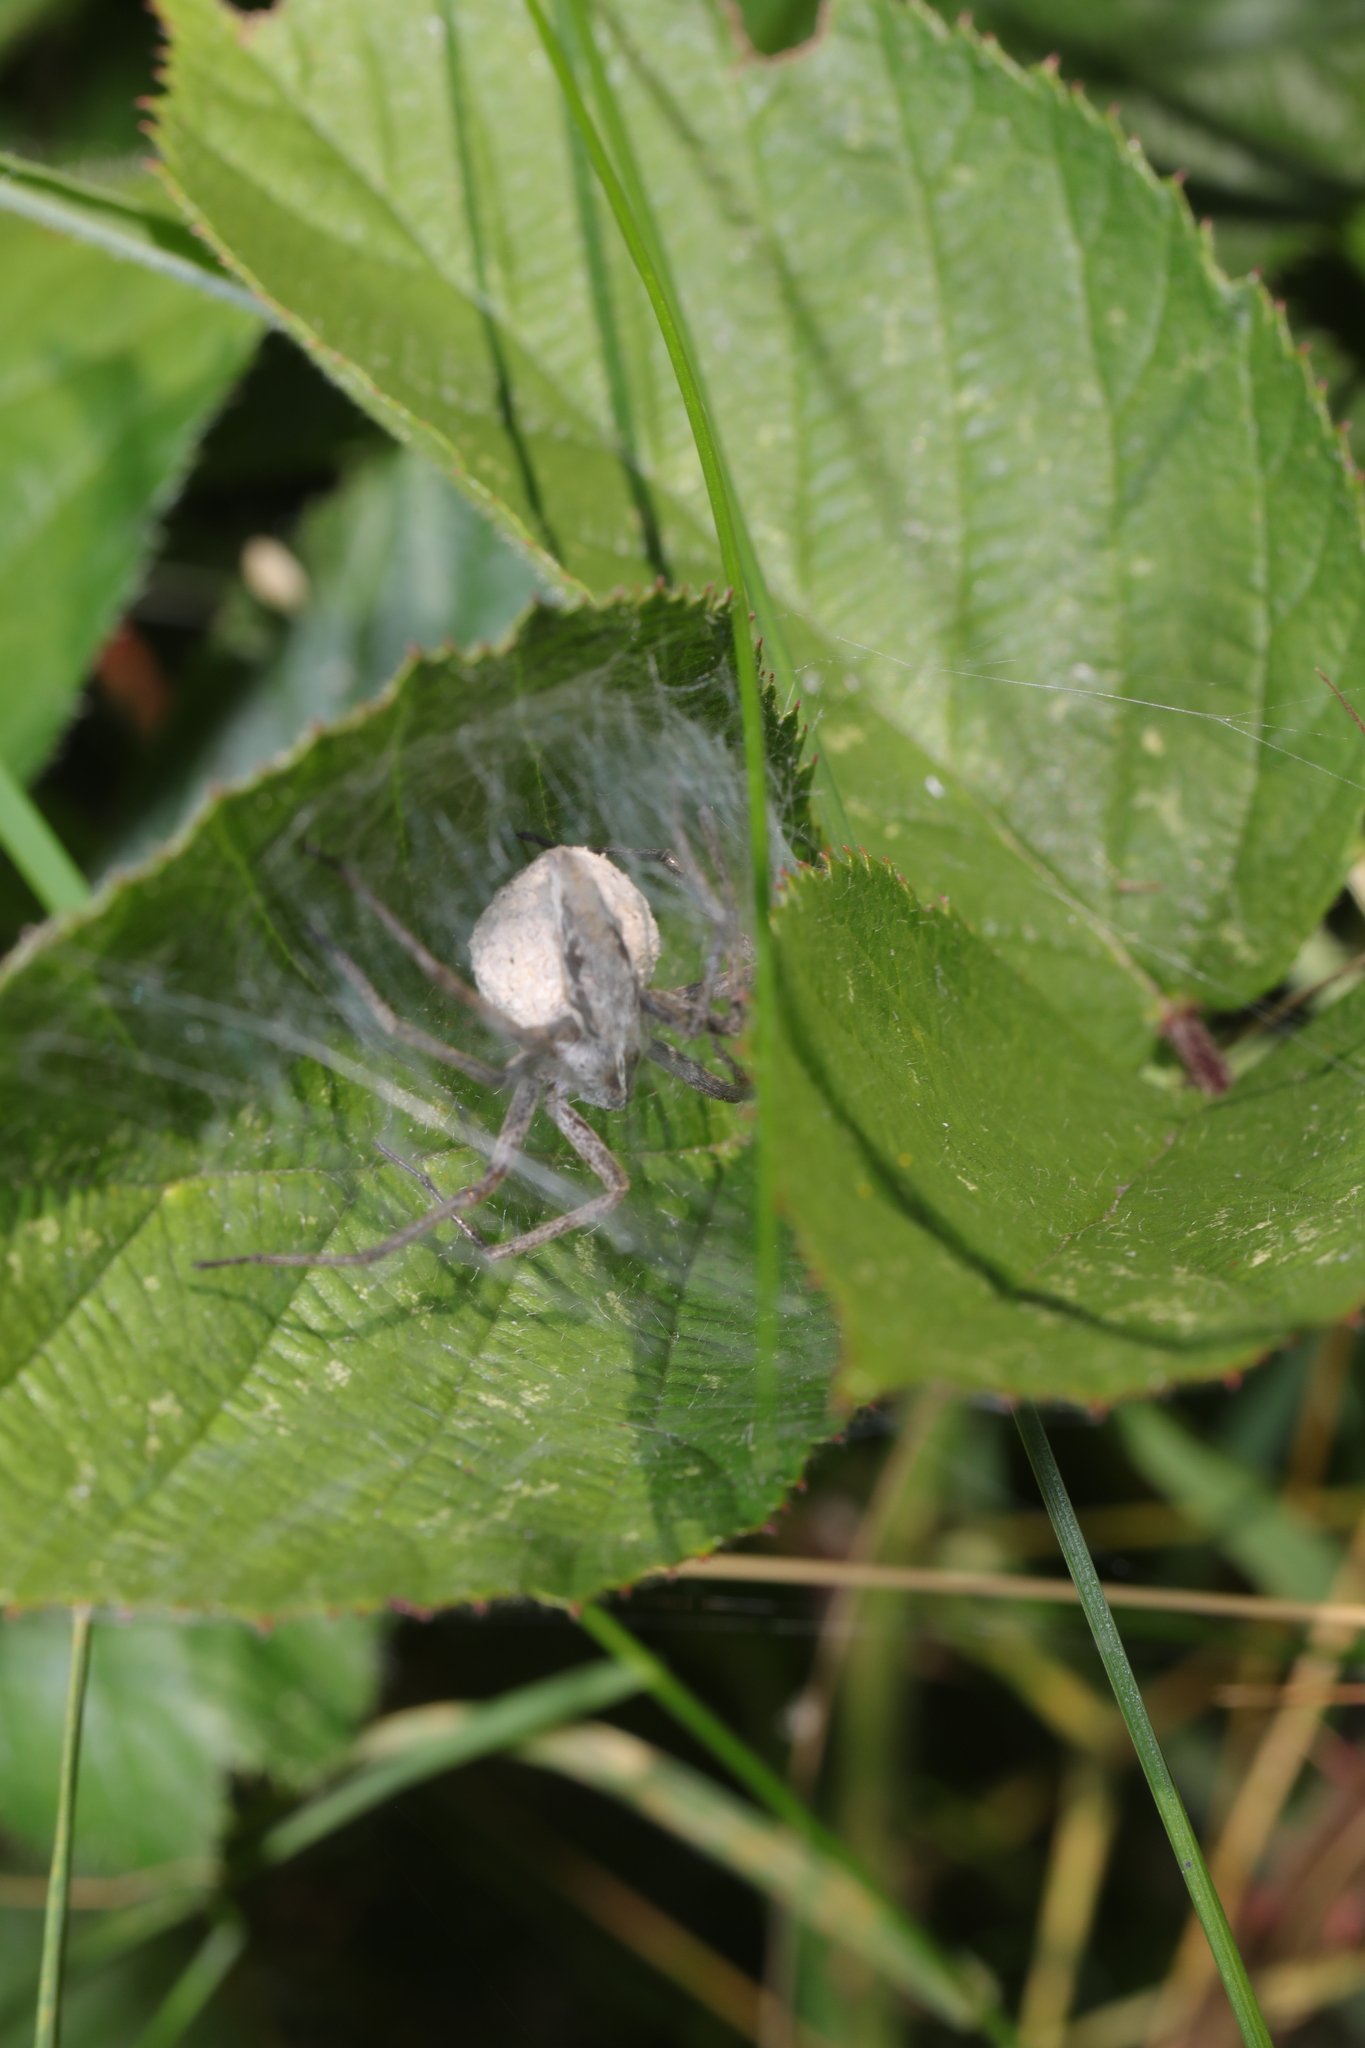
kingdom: Animalia
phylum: Arthropoda
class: Arachnida
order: Araneae
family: Pisauridae
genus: Pisaura
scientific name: Pisaura mirabilis
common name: Tent spider
